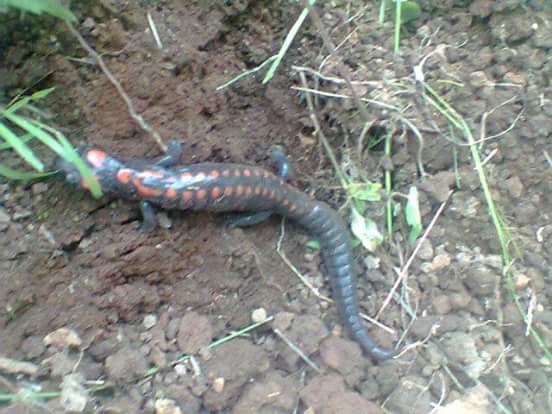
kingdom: Animalia
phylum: Chordata
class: Amphibia
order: Caudata
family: Plethodontidae
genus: Isthmura
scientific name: Isthmura bellii
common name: Bell's false brook salamander
